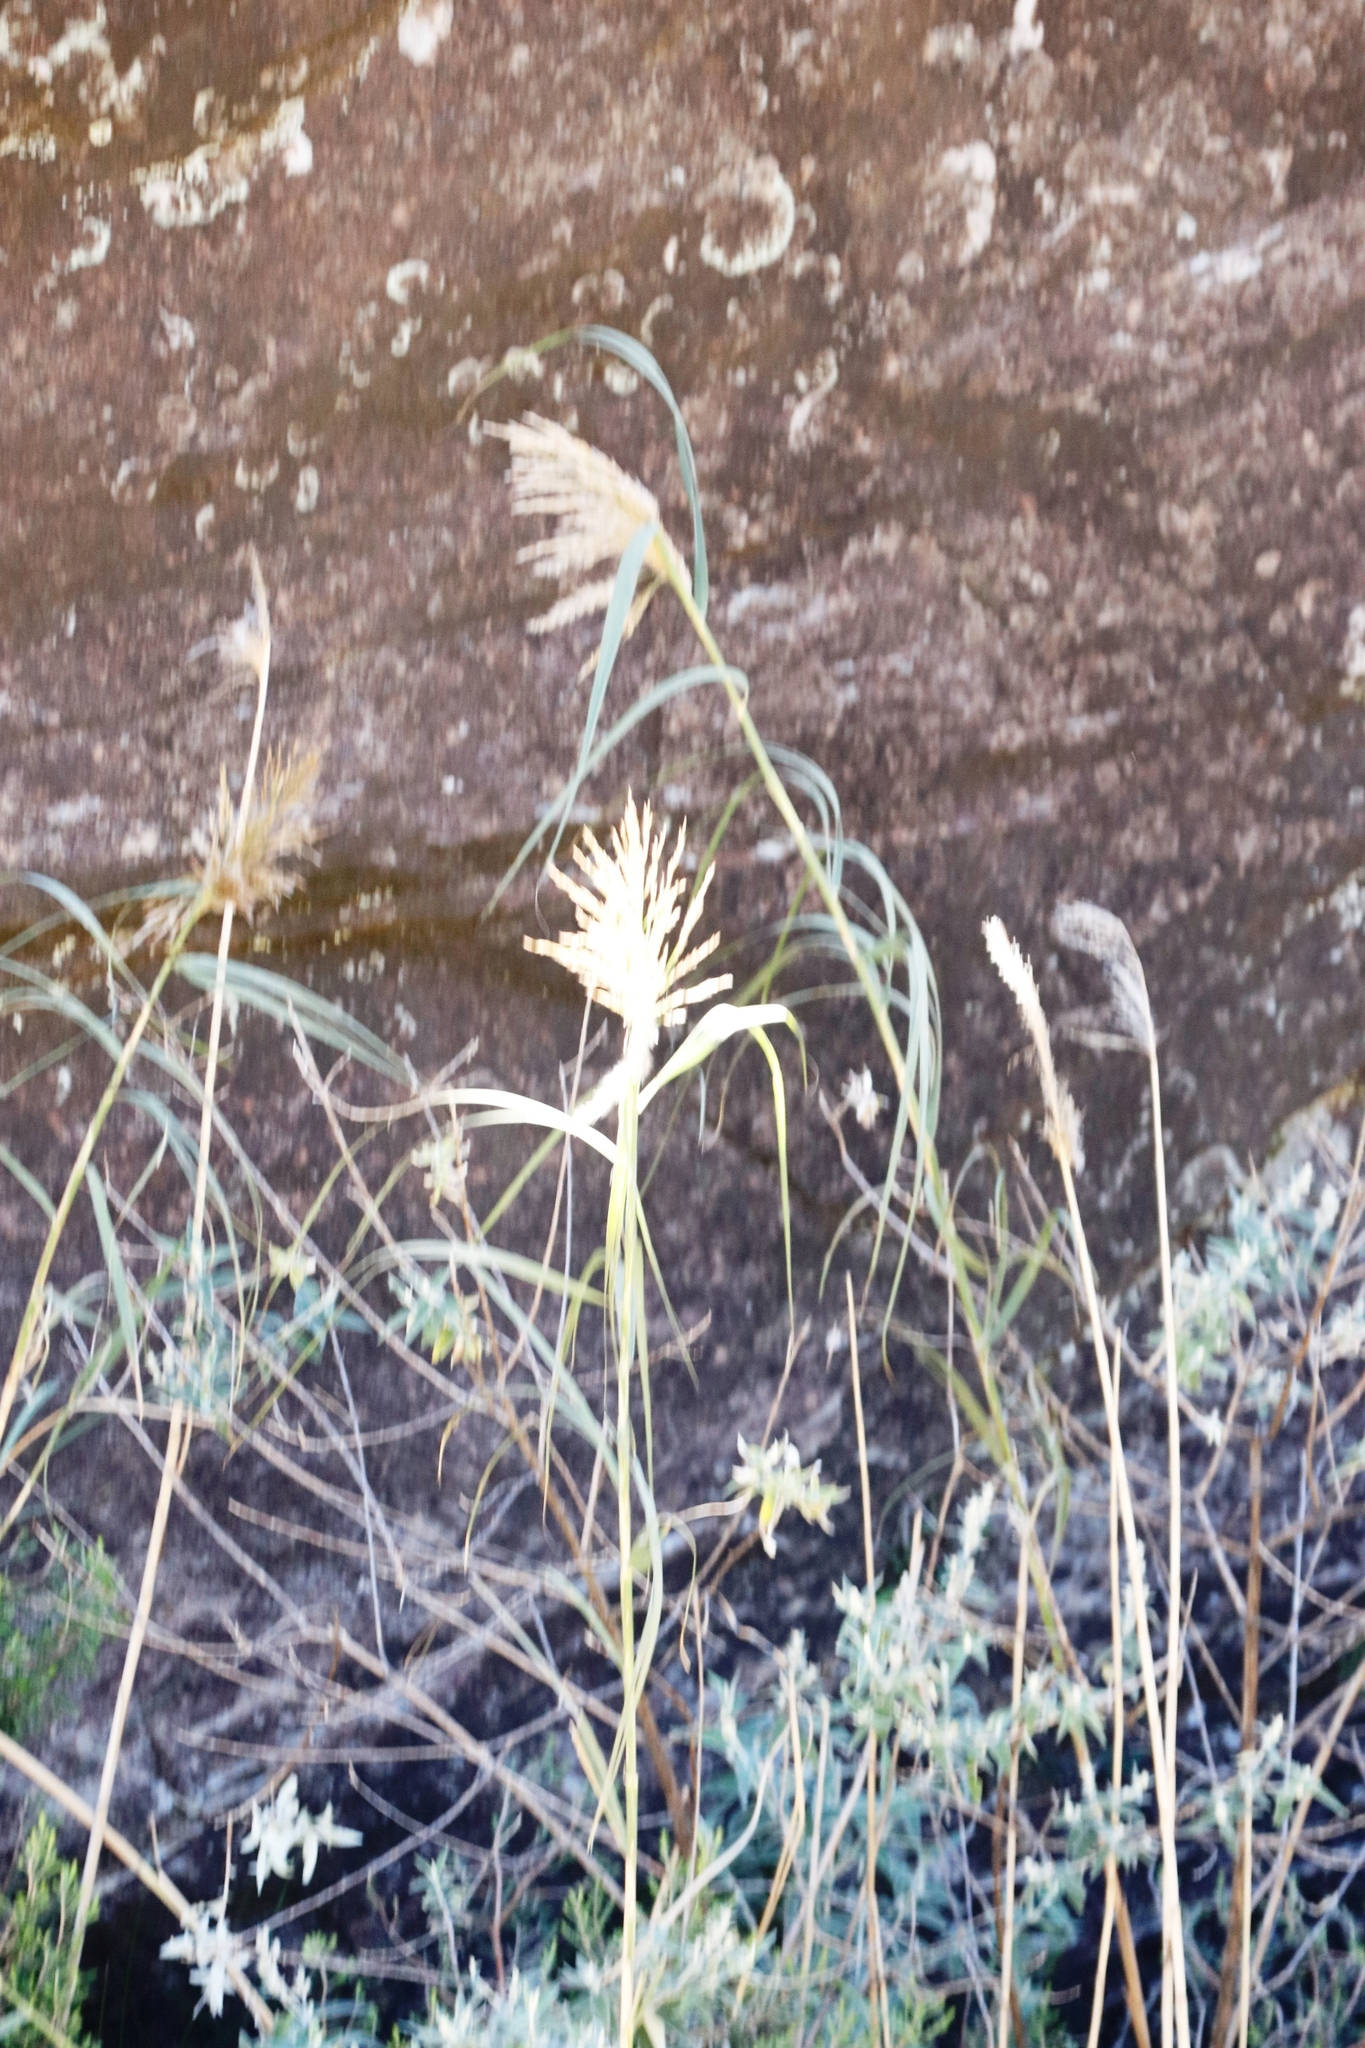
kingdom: Plantae
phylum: Tracheophyta
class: Liliopsida
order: Poales
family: Poaceae
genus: Phragmites
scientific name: Phragmites australis
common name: Common reed
